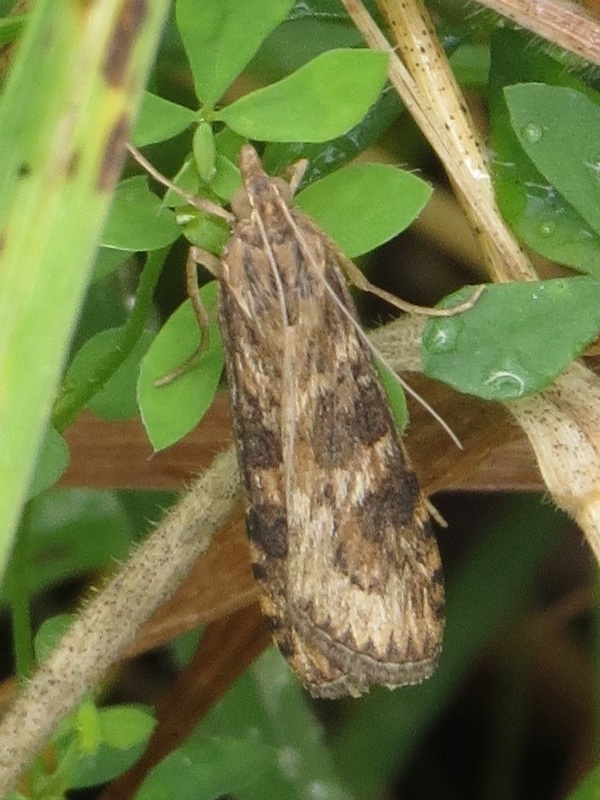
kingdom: Animalia
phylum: Arthropoda
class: Insecta
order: Lepidoptera
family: Crambidae
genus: Nomophila
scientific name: Nomophila nearctica
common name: American rush veneer
